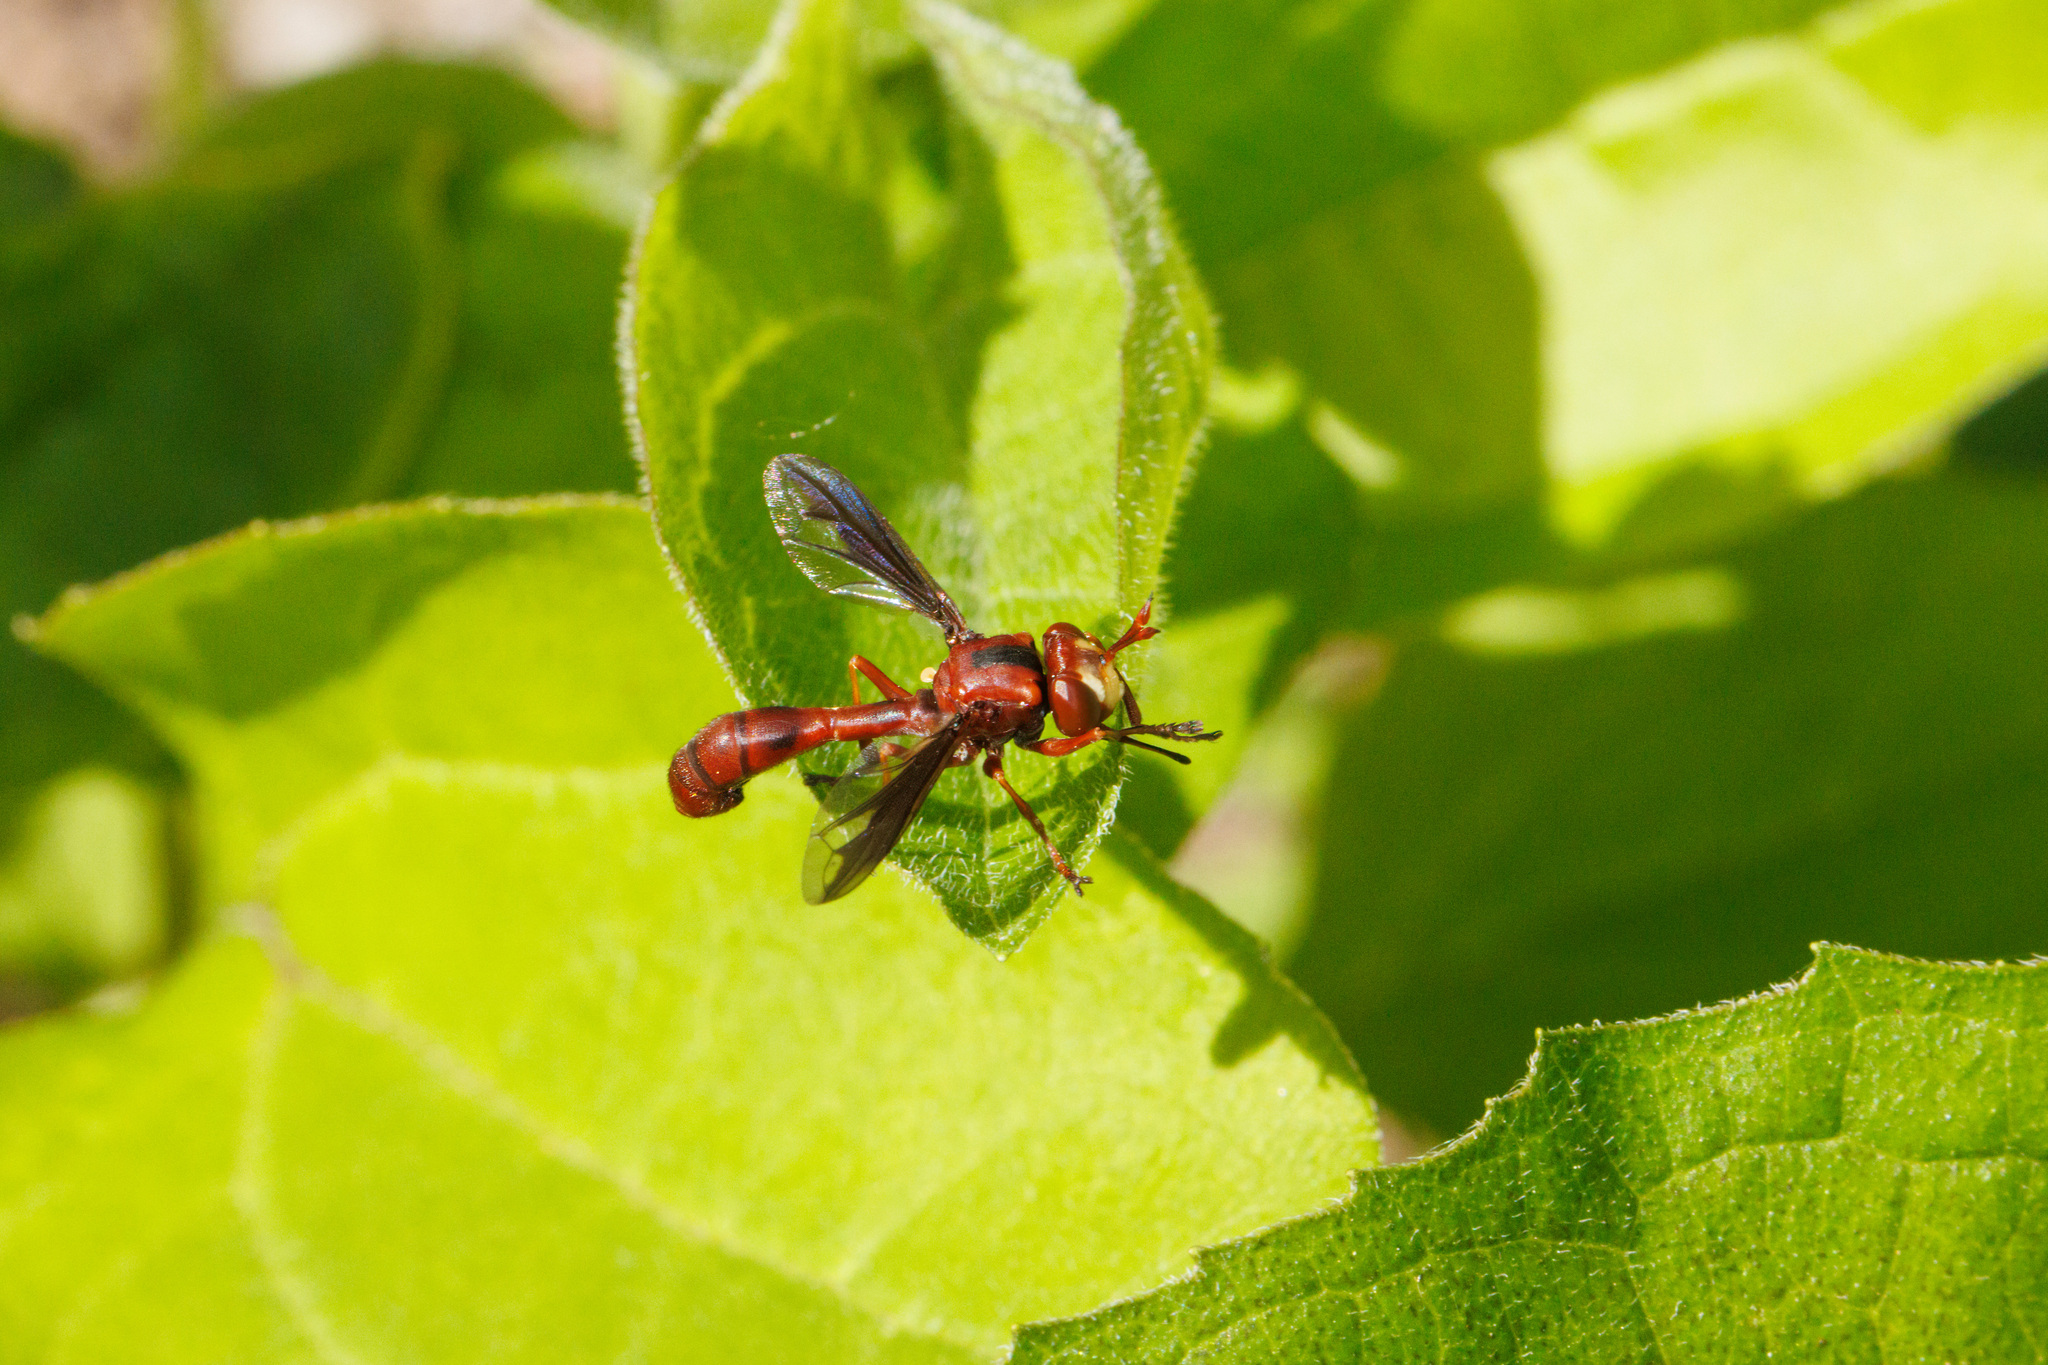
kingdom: Animalia
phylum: Arthropoda
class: Insecta
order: Diptera
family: Conopidae
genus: Physocephala
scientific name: Physocephala burgessi
